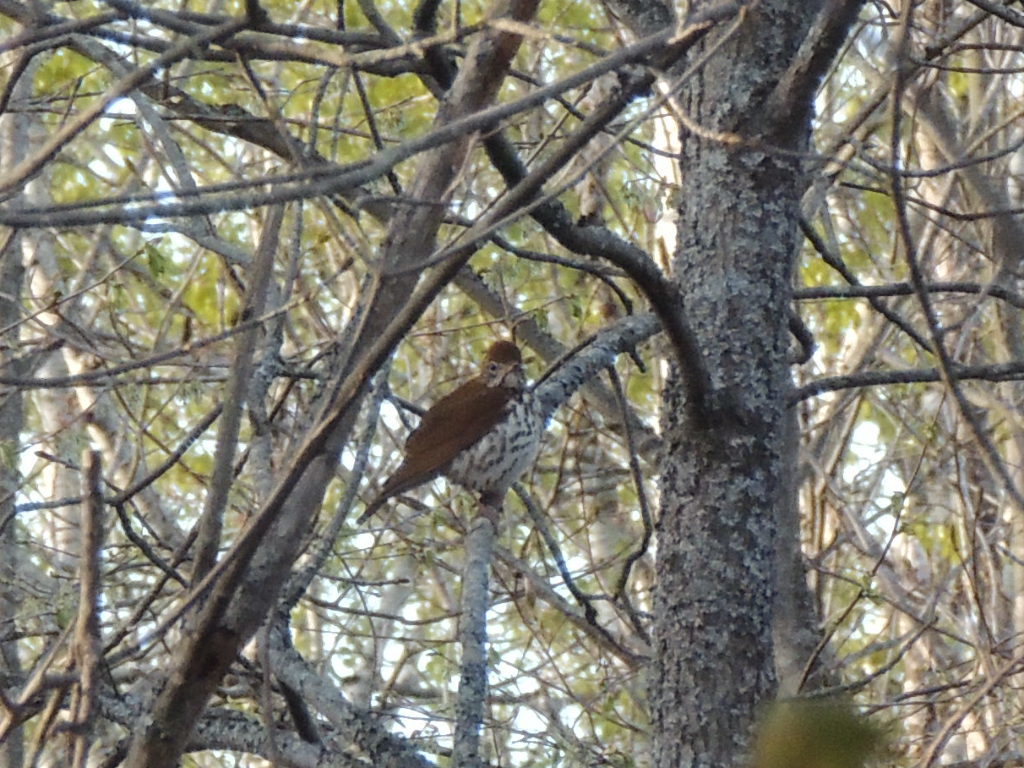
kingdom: Animalia
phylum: Chordata
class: Aves
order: Passeriformes
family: Turdidae
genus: Hylocichla
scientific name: Hylocichla mustelina
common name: Wood thrush
